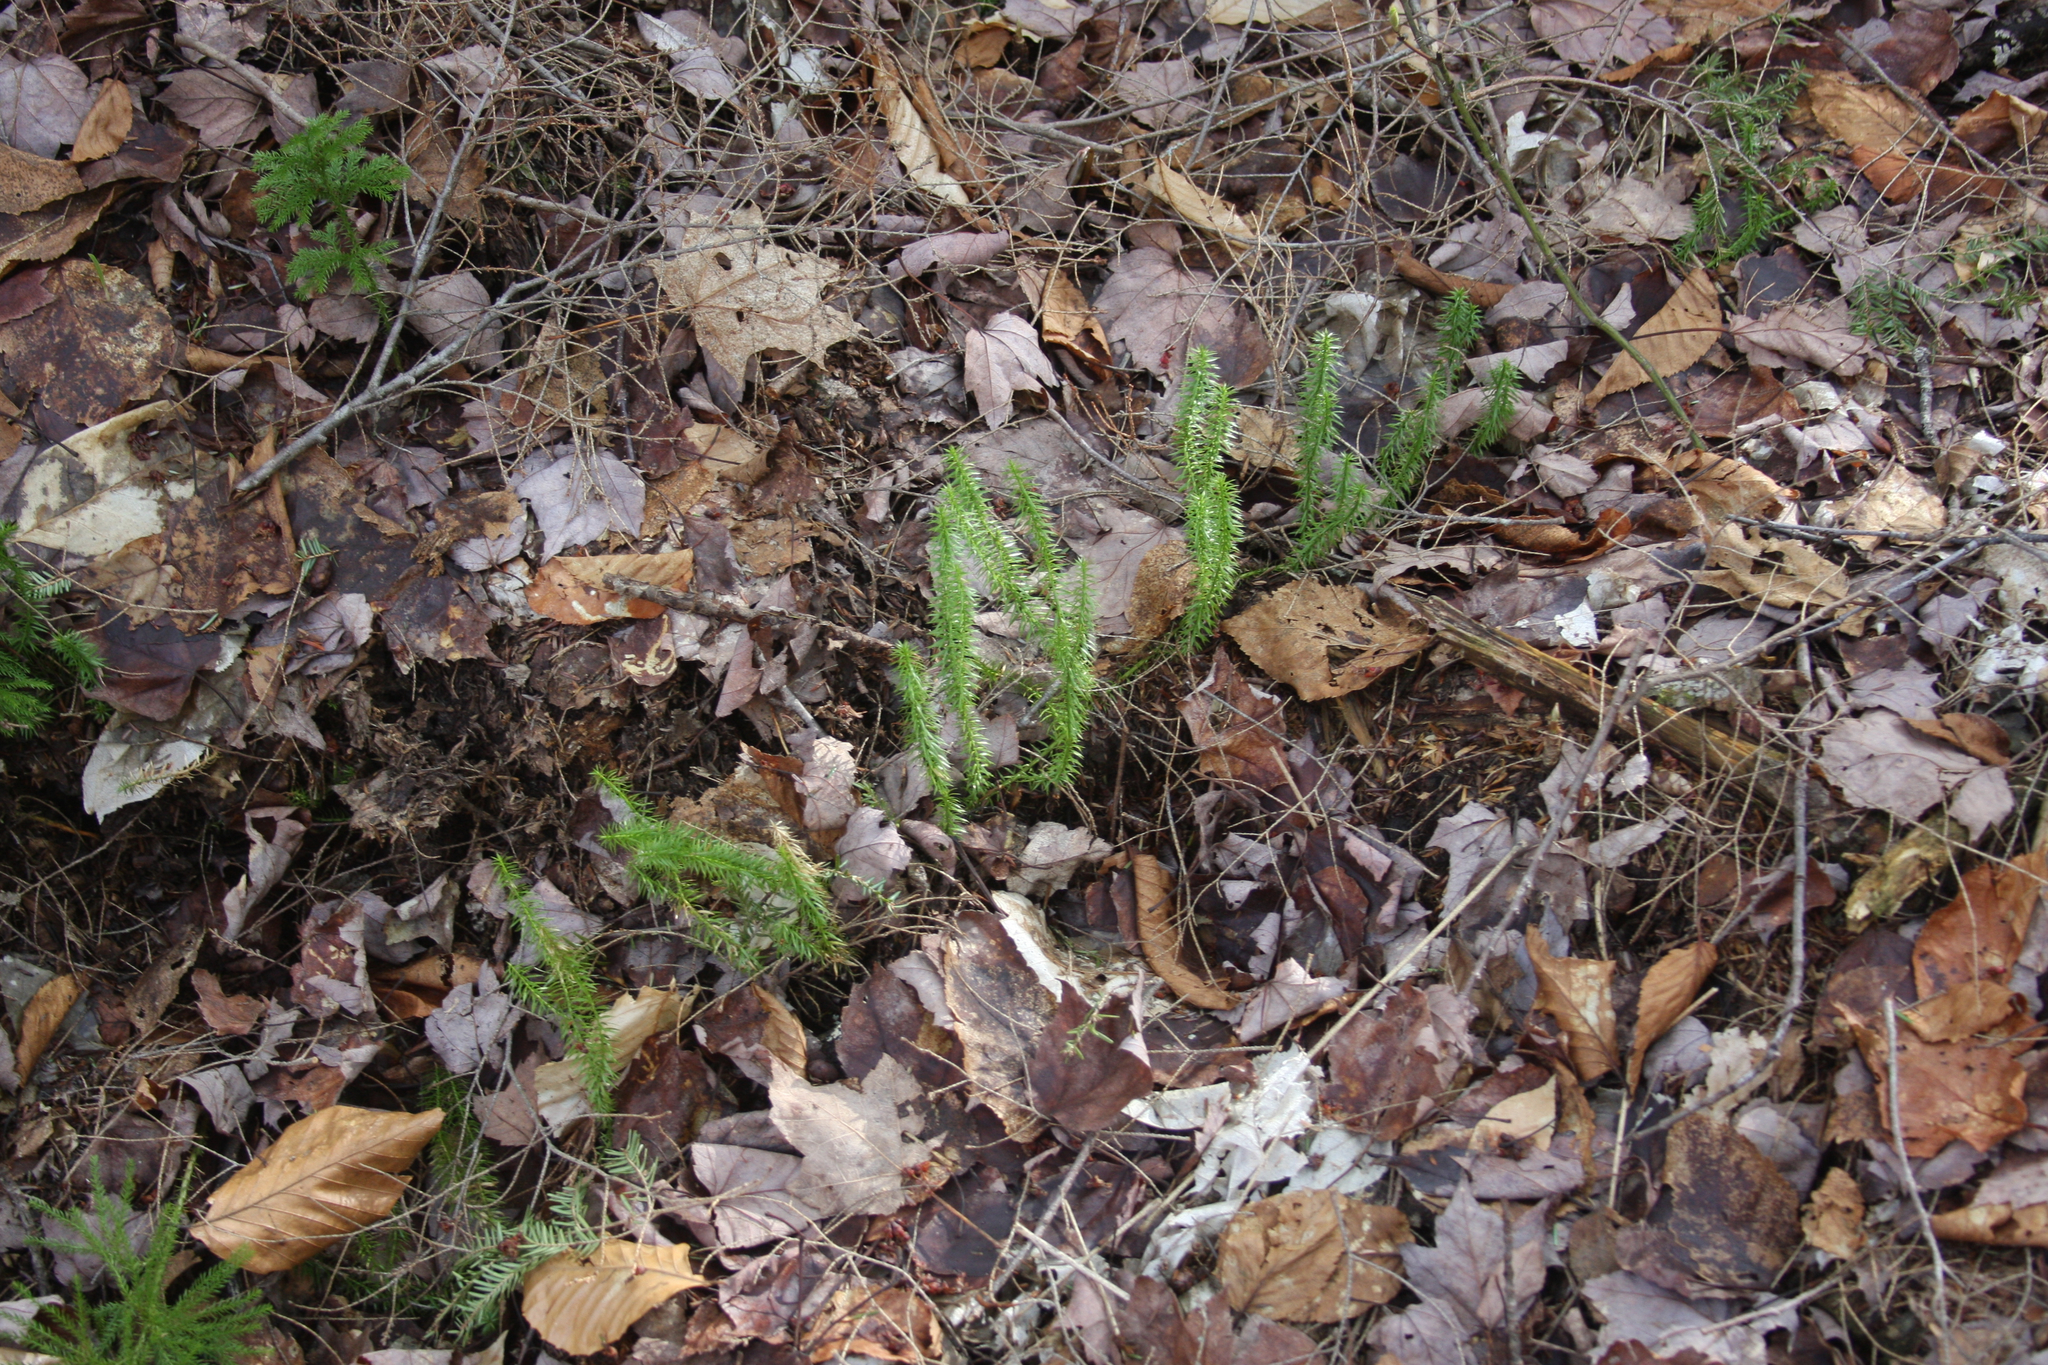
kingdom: Plantae
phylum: Tracheophyta
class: Lycopodiopsida
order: Lycopodiales
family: Lycopodiaceae
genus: Spinulum
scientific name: Spinulum annotinum
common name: Interrupted club-moss
